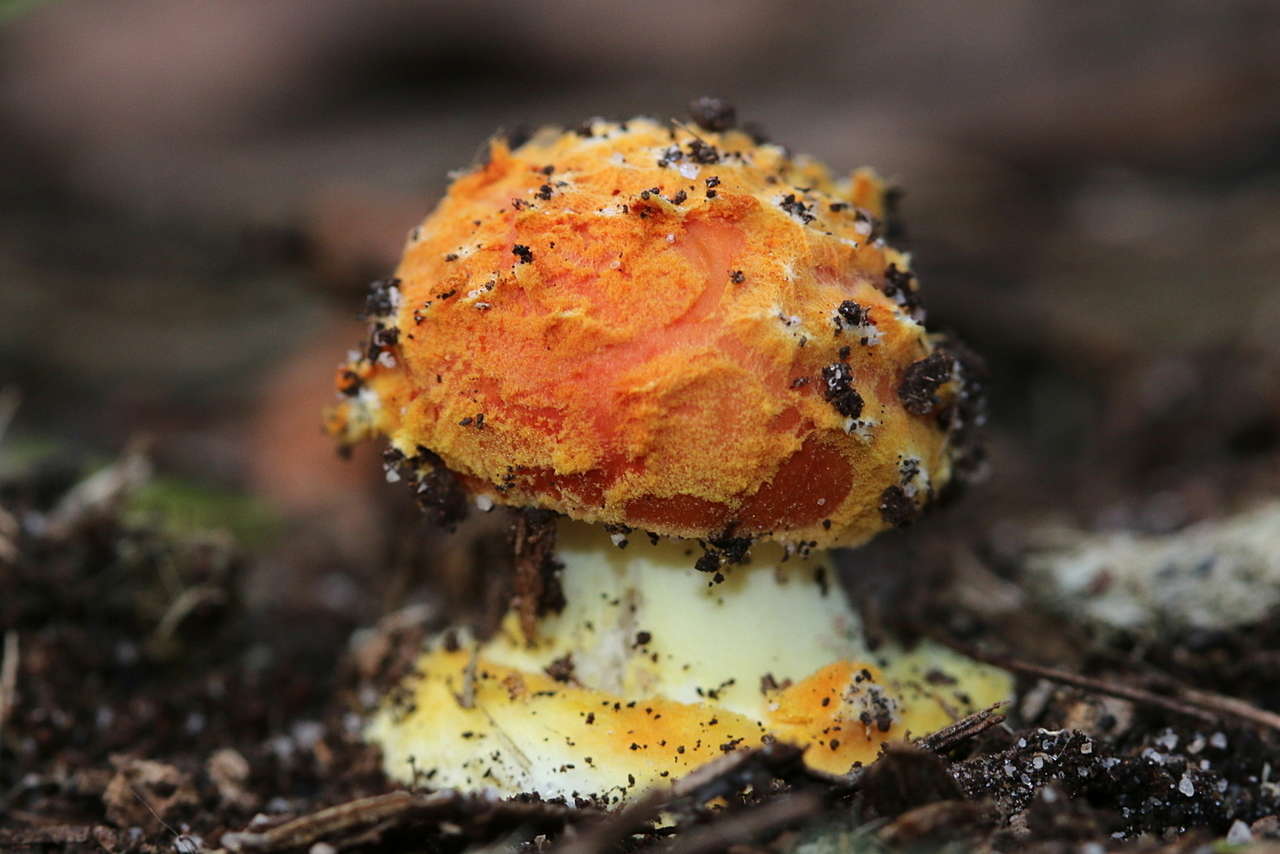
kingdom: Fungi
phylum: Basidiomycota
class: Agaricomycetes
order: Agaricales
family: Amanitaceae
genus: Amanita
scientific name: Amanita xanthocephala
